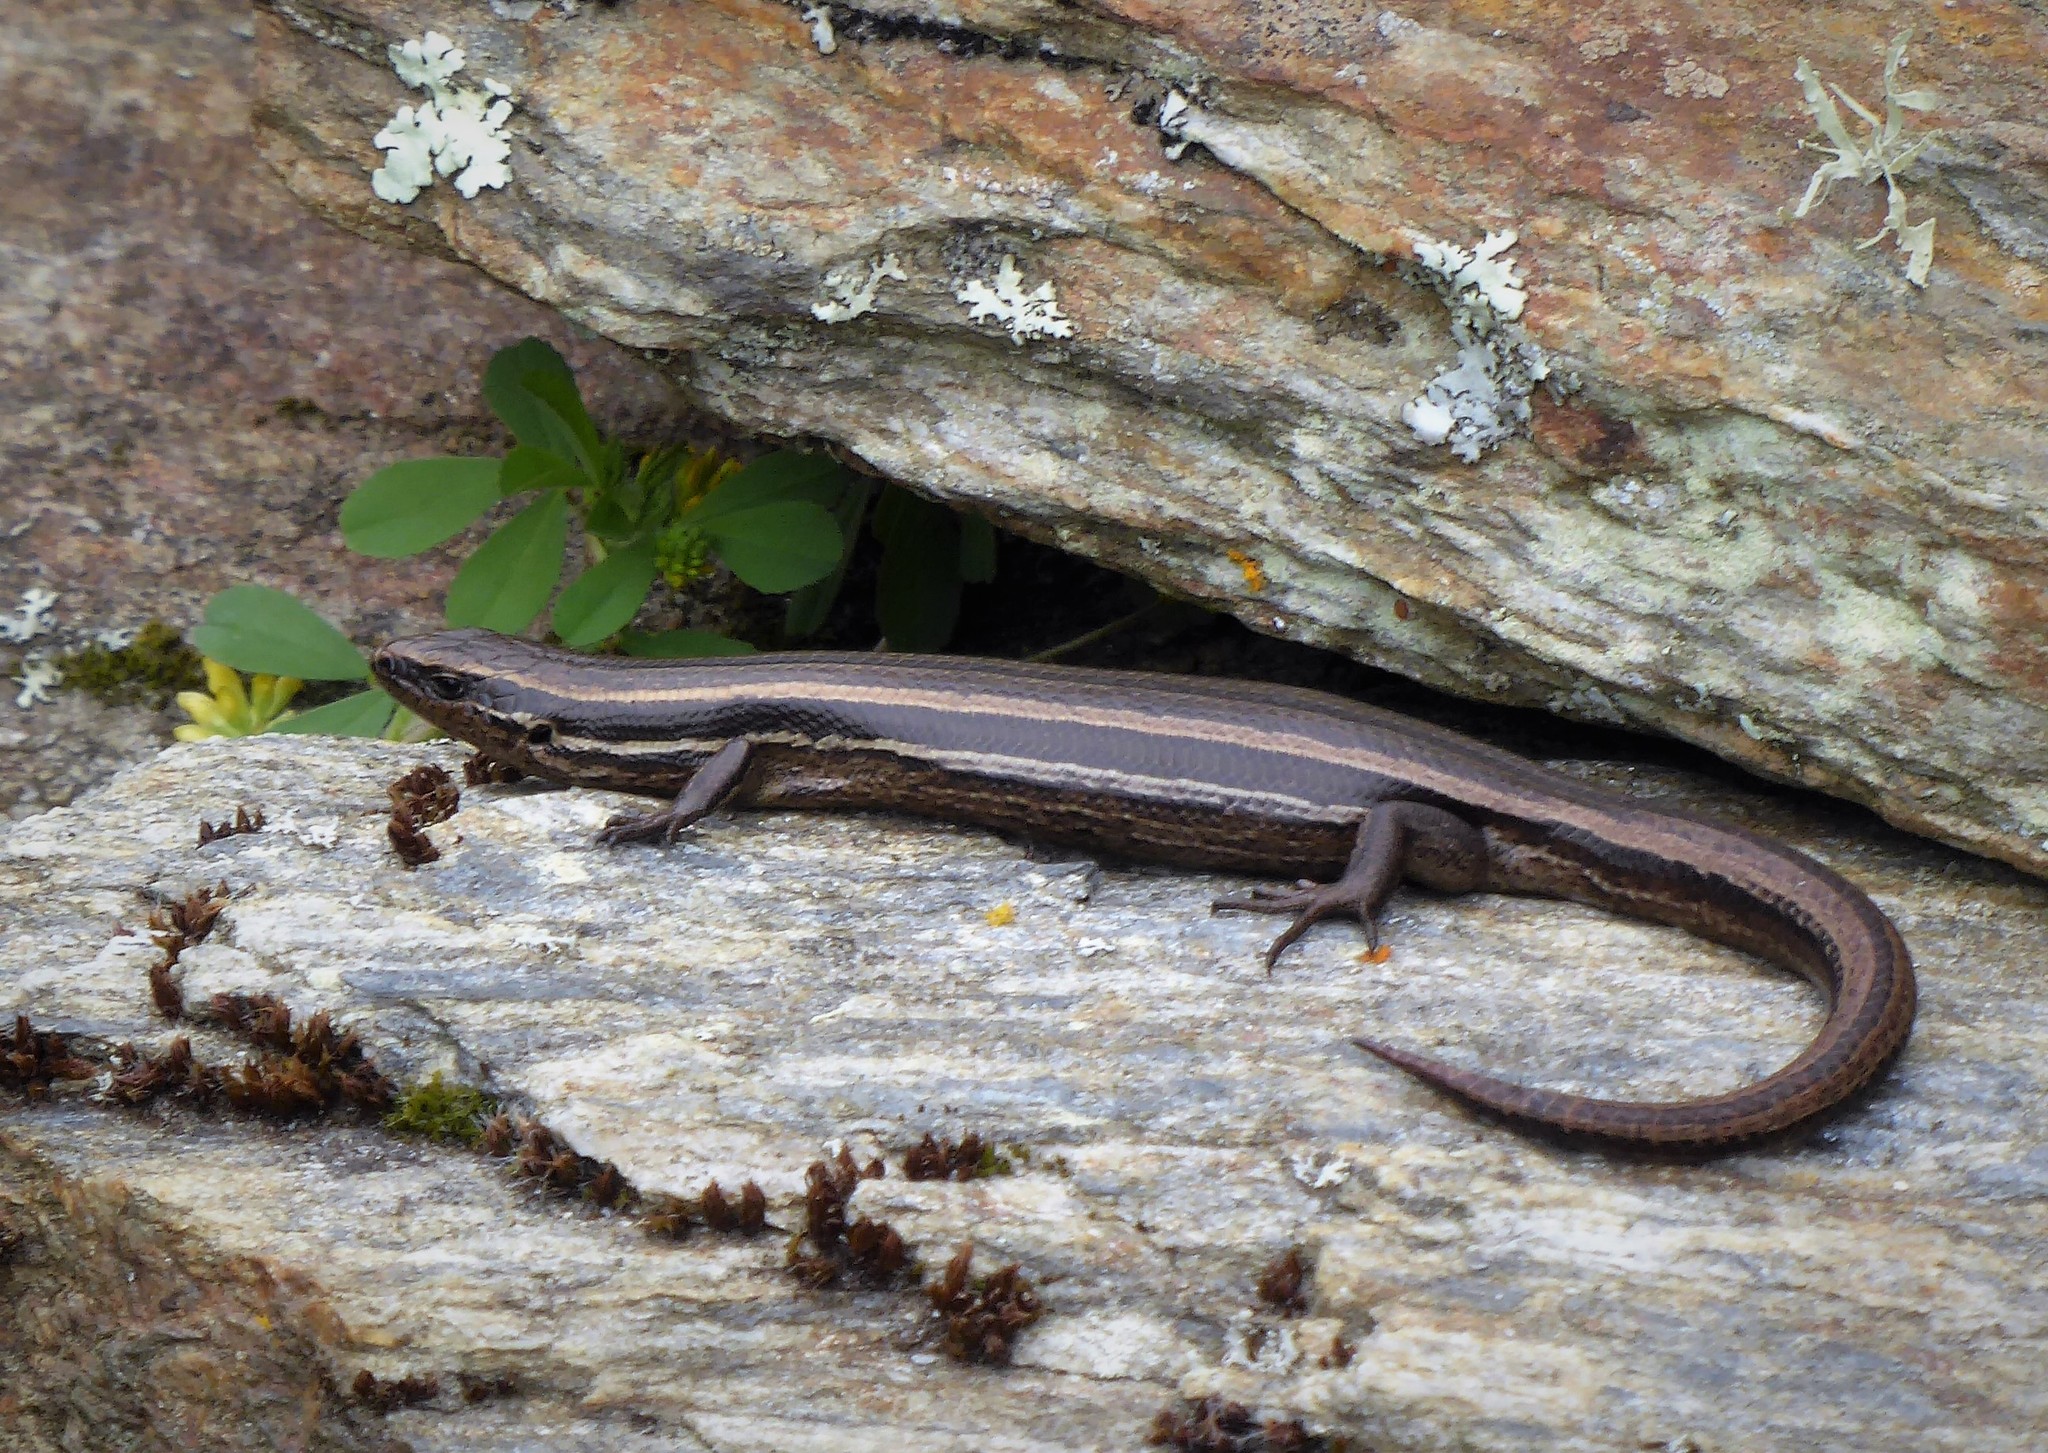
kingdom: Animalia
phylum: Chordata
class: Squamata
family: Scincidae
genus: Oligosoma
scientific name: Oligosoma polychroma
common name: Common new zealand skink
